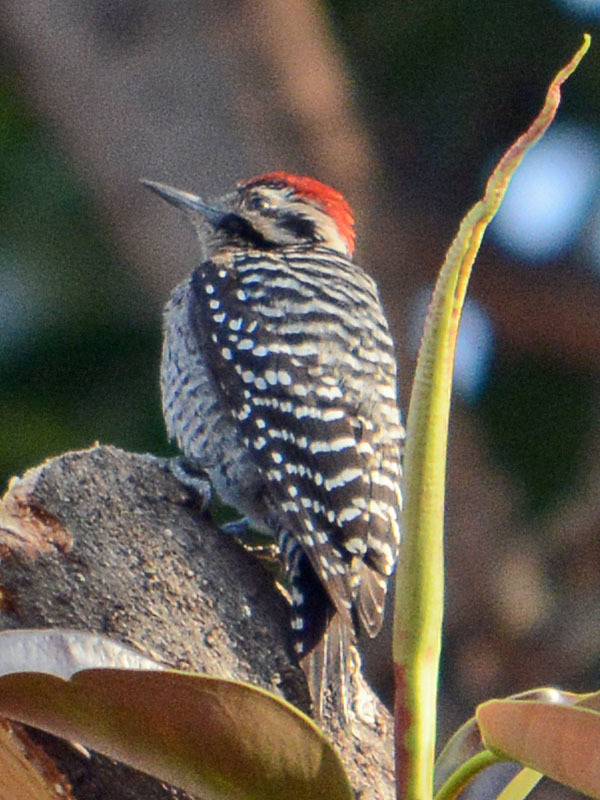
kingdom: Animalia
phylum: Chordata
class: Aves
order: Piciformes
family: Picidae
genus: Dryobates
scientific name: Dryobates scalaris
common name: Ladder-backed woodpecker
